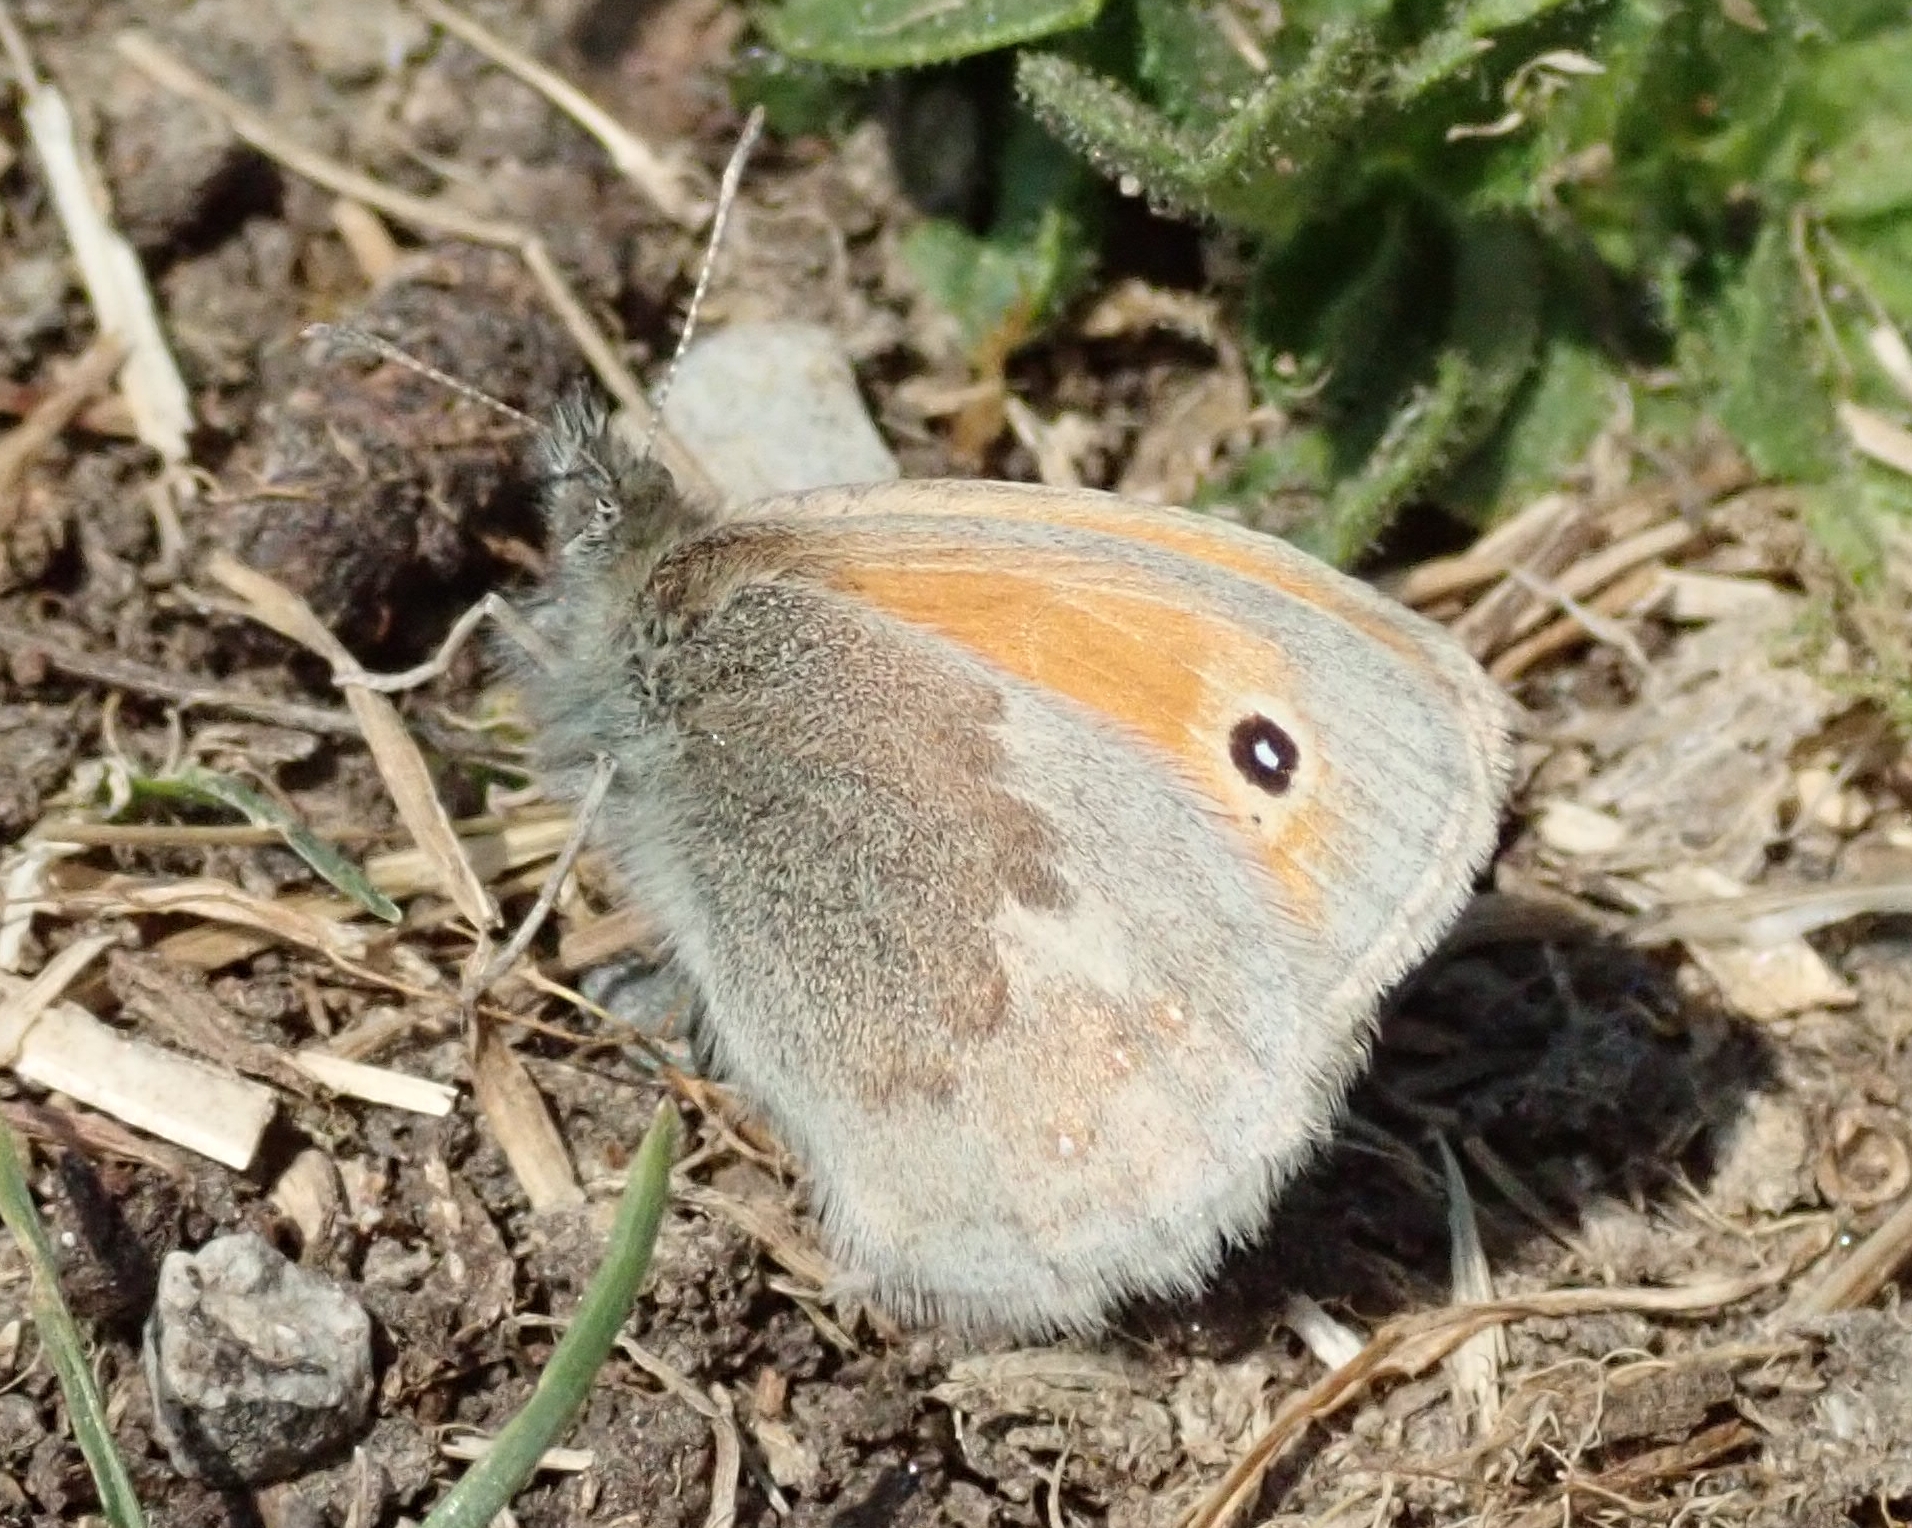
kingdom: Animalia
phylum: Arthropoda
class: Insecta
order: Lepidoptera
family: Nymphalidae
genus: Coenonympha
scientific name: Coenonympha pamphilus
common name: Small heath
